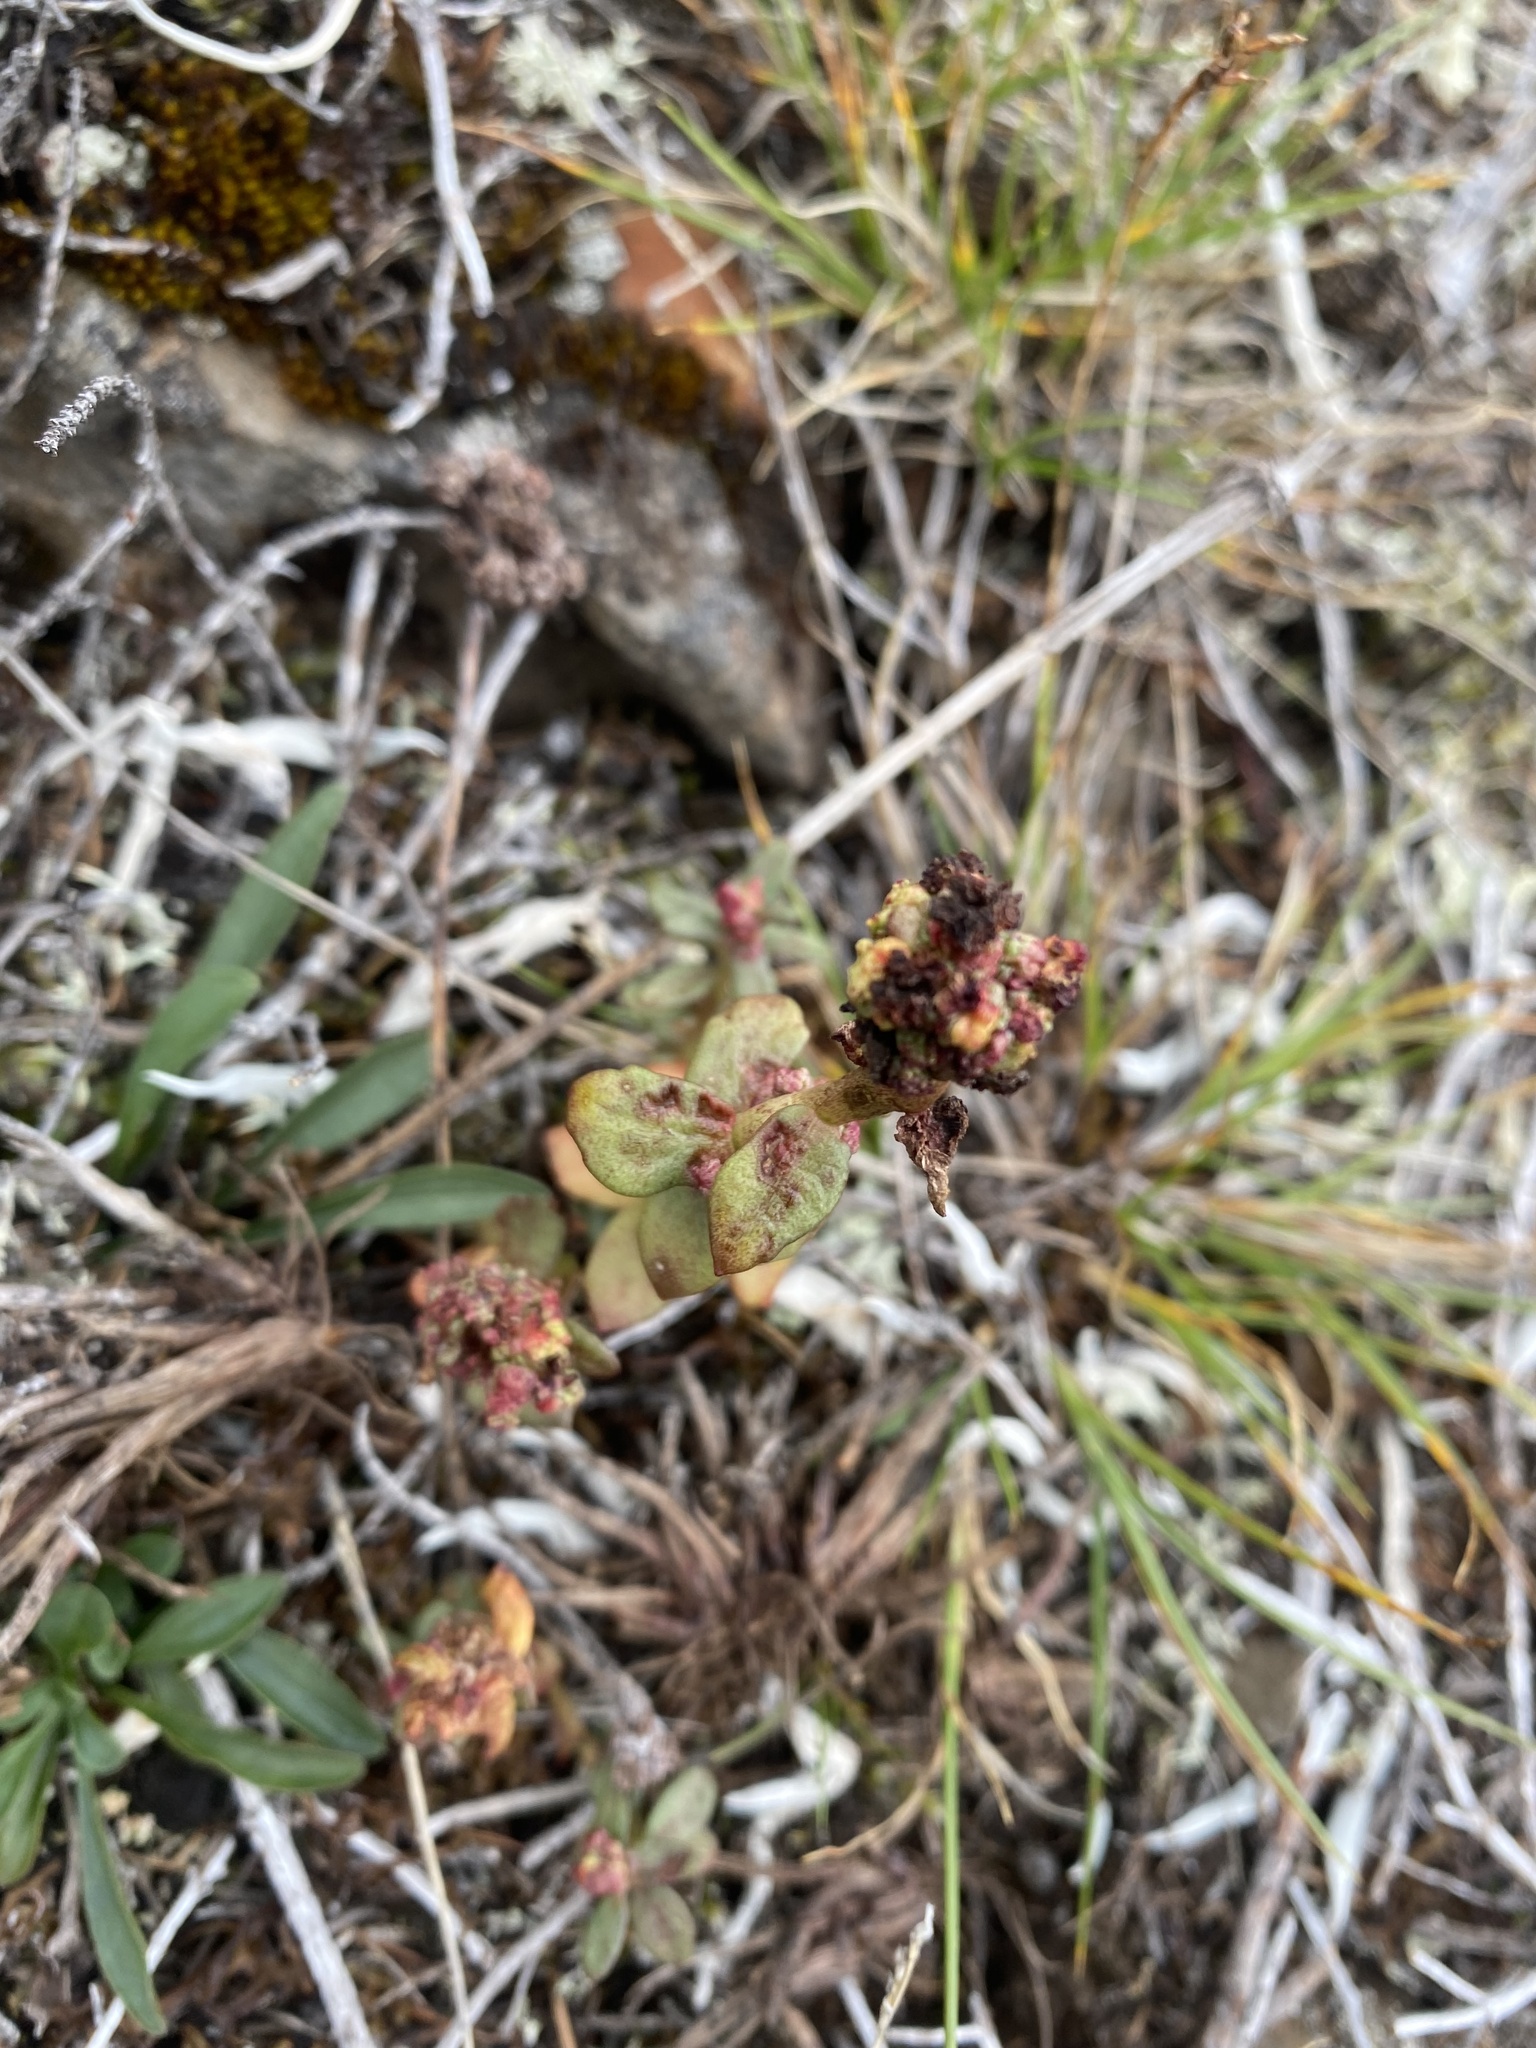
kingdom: Plantae
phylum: Tracheophyta
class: Magnoliopsida
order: Saxifragales
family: Crassulaceae
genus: Rhodiola
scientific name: Rhodiola rosea
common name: Roseroot
